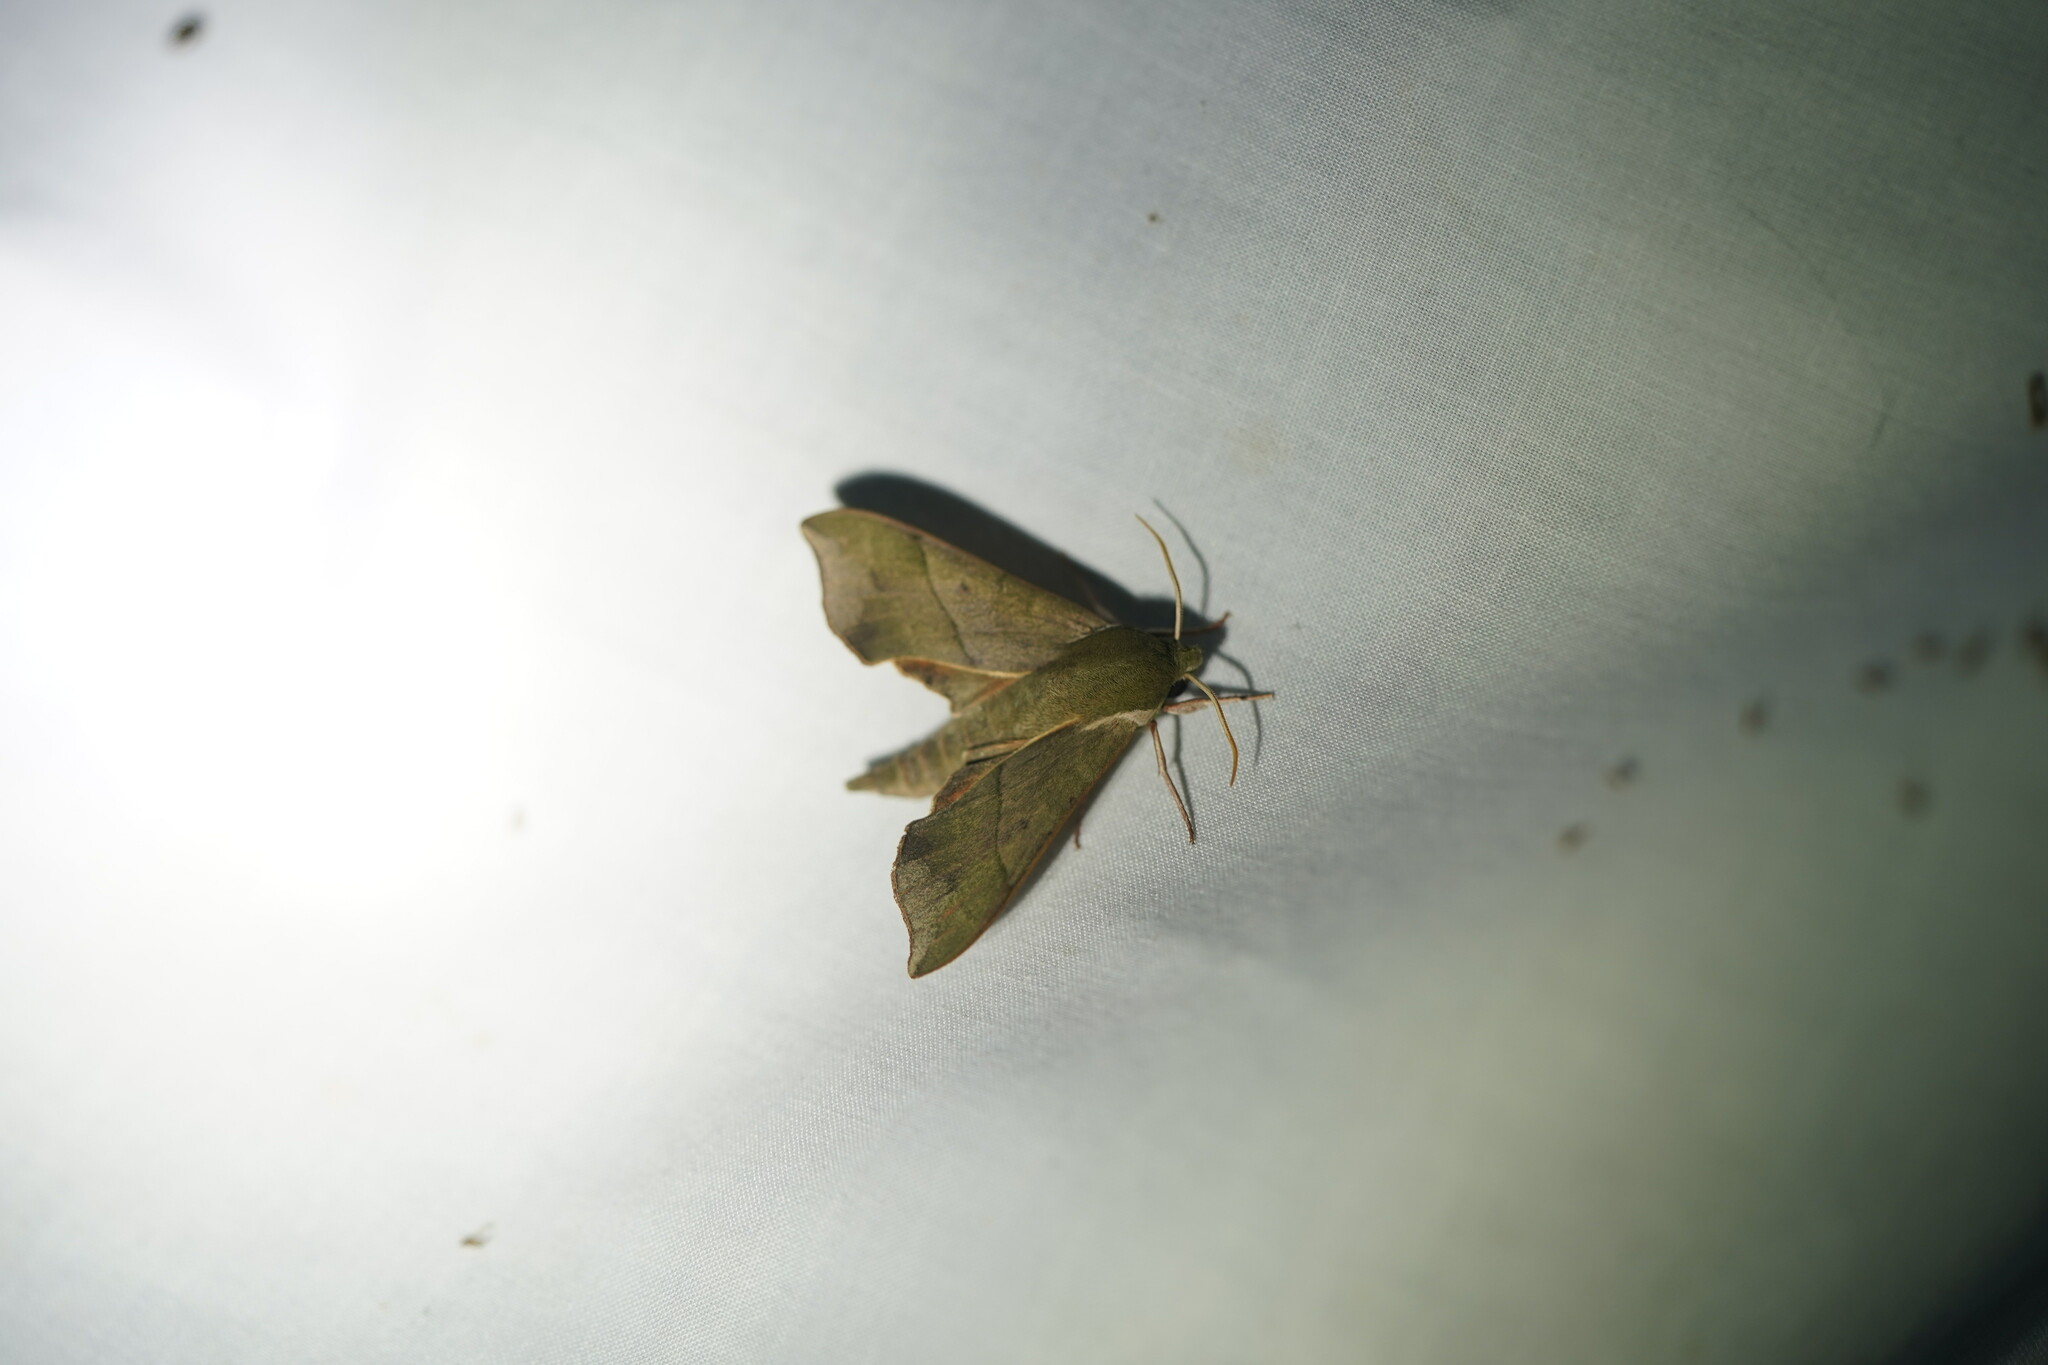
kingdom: Animalia
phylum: Arthropoda
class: Insecta
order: Lepidoptera
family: Sphingidae
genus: Darapsa
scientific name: Darapsa myron
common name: Hog sphinx
